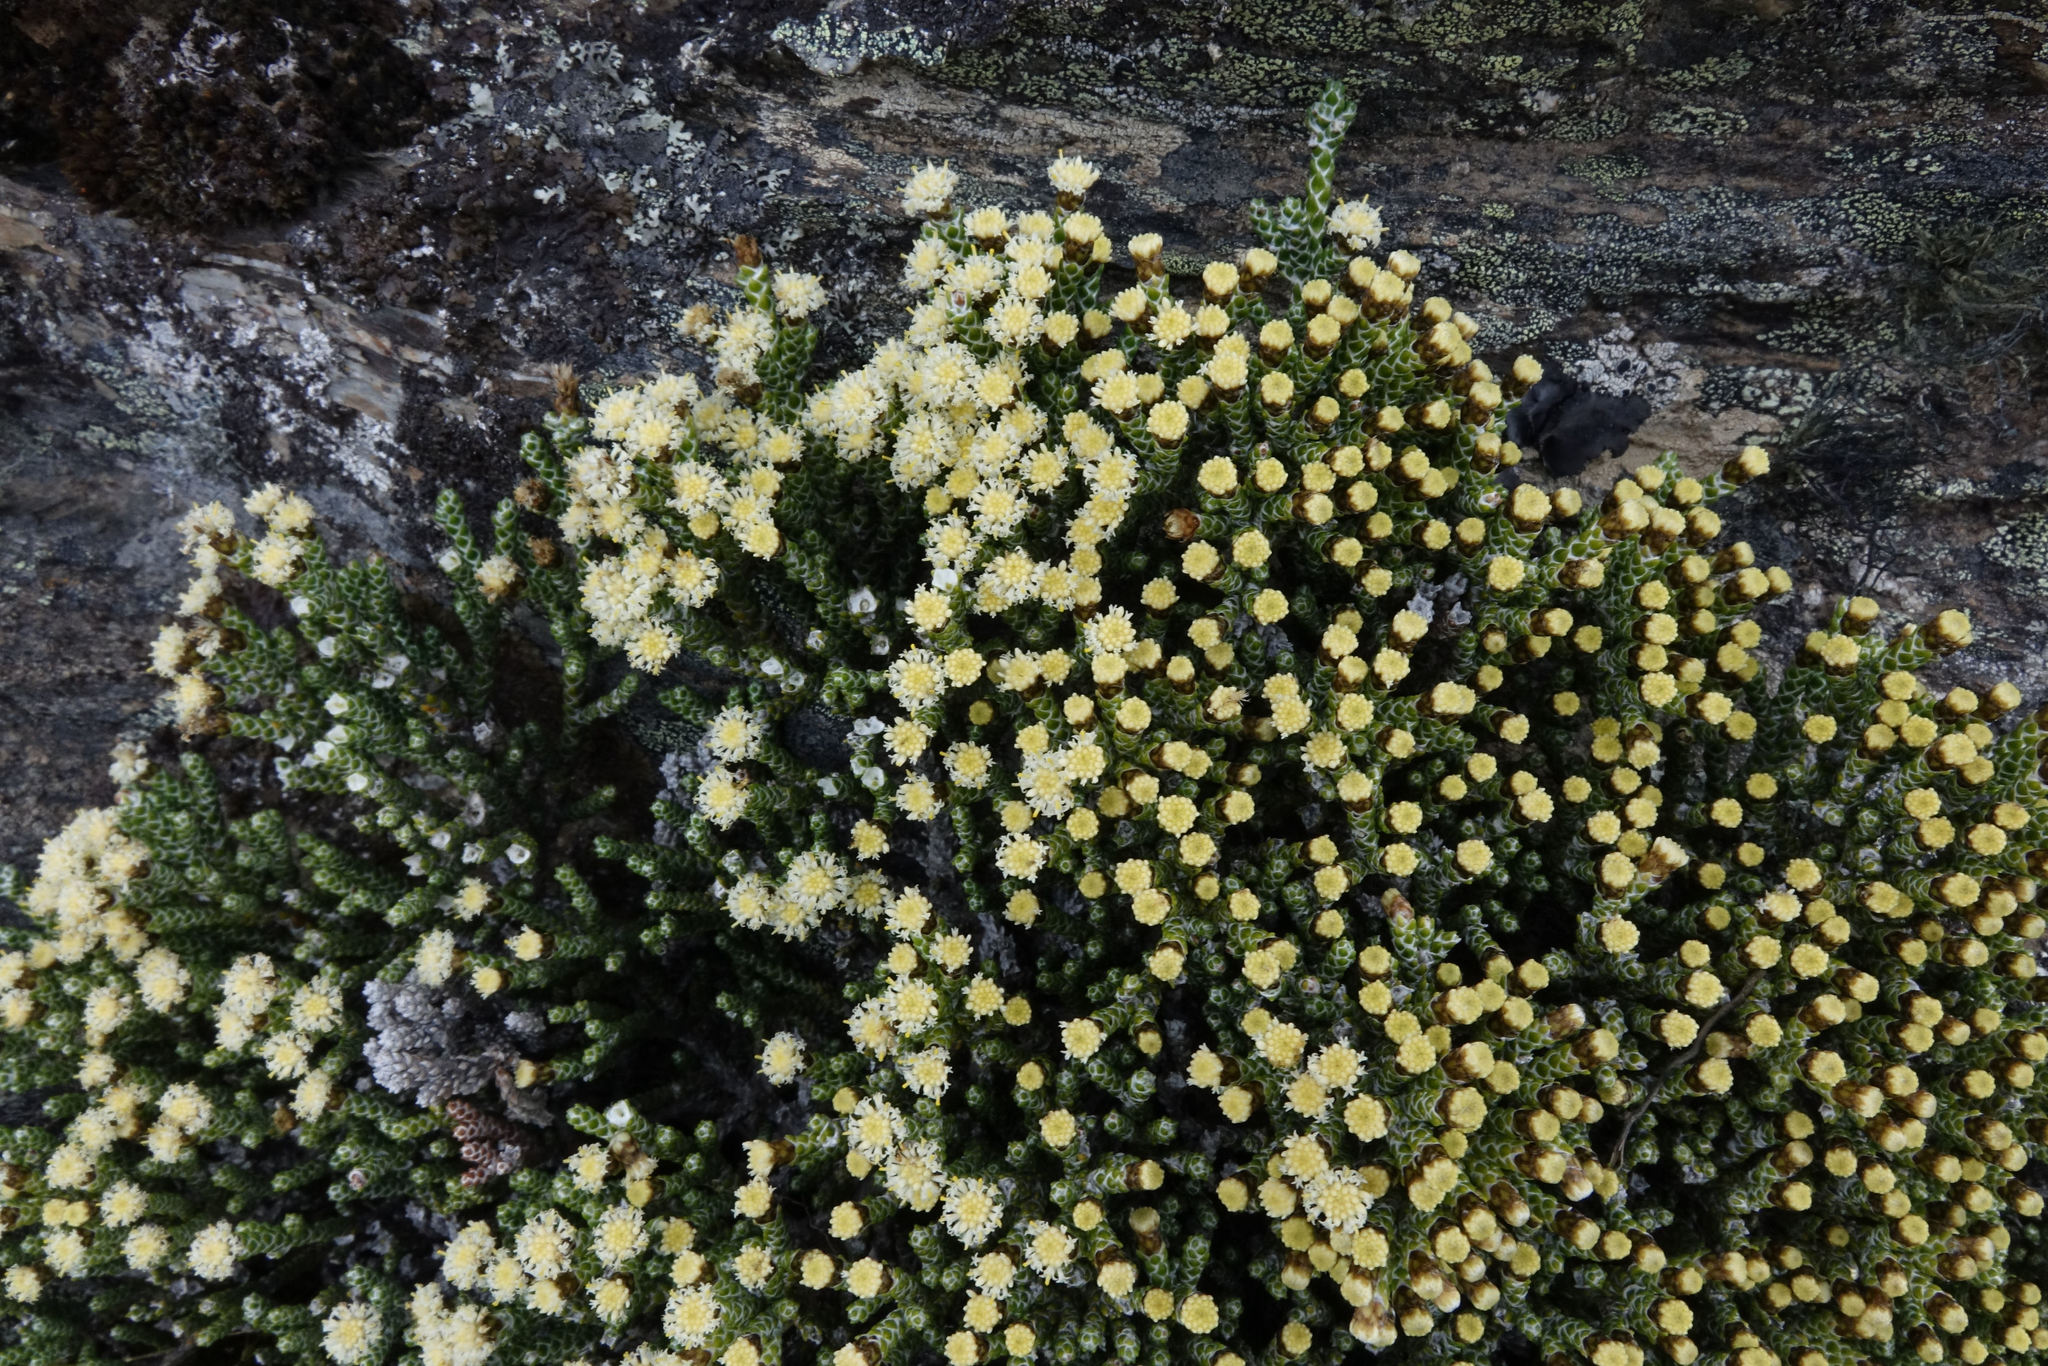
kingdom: Plantae
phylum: Tracheophyta
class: Magnoliopsida
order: Asterales
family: Asteraceae
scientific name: Asteraceae
